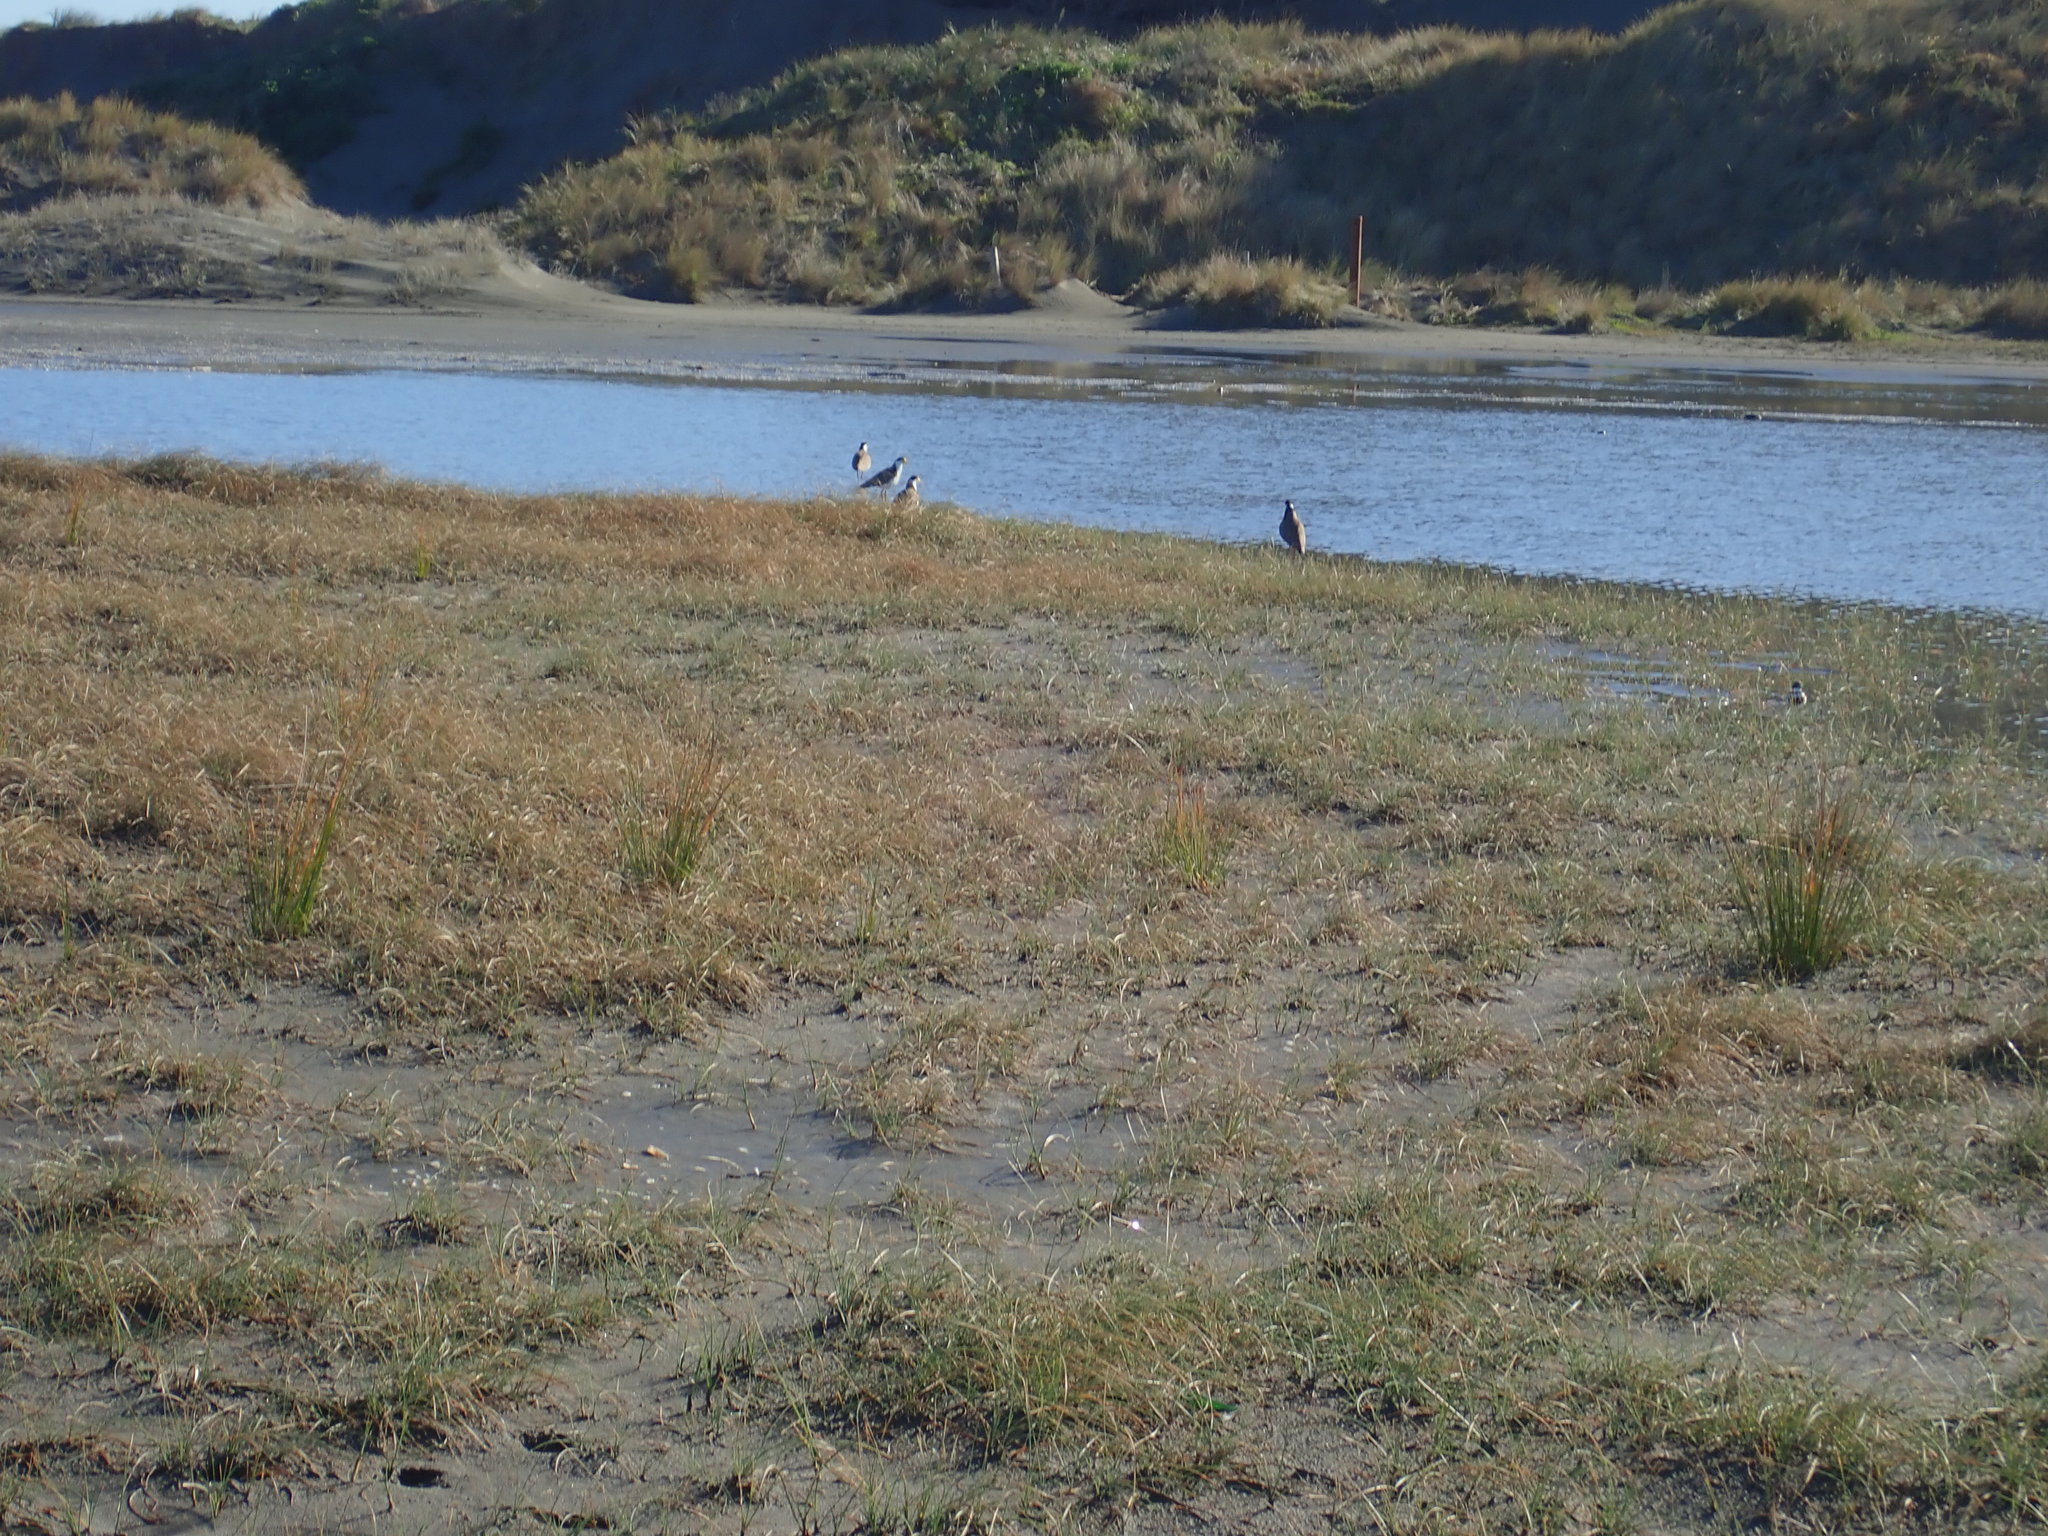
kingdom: Animalia
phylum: Chordata
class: Aves
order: Charadriiformes
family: Charadriidae
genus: Vanellus
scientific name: Vanellus miles
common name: Masked lapwing
